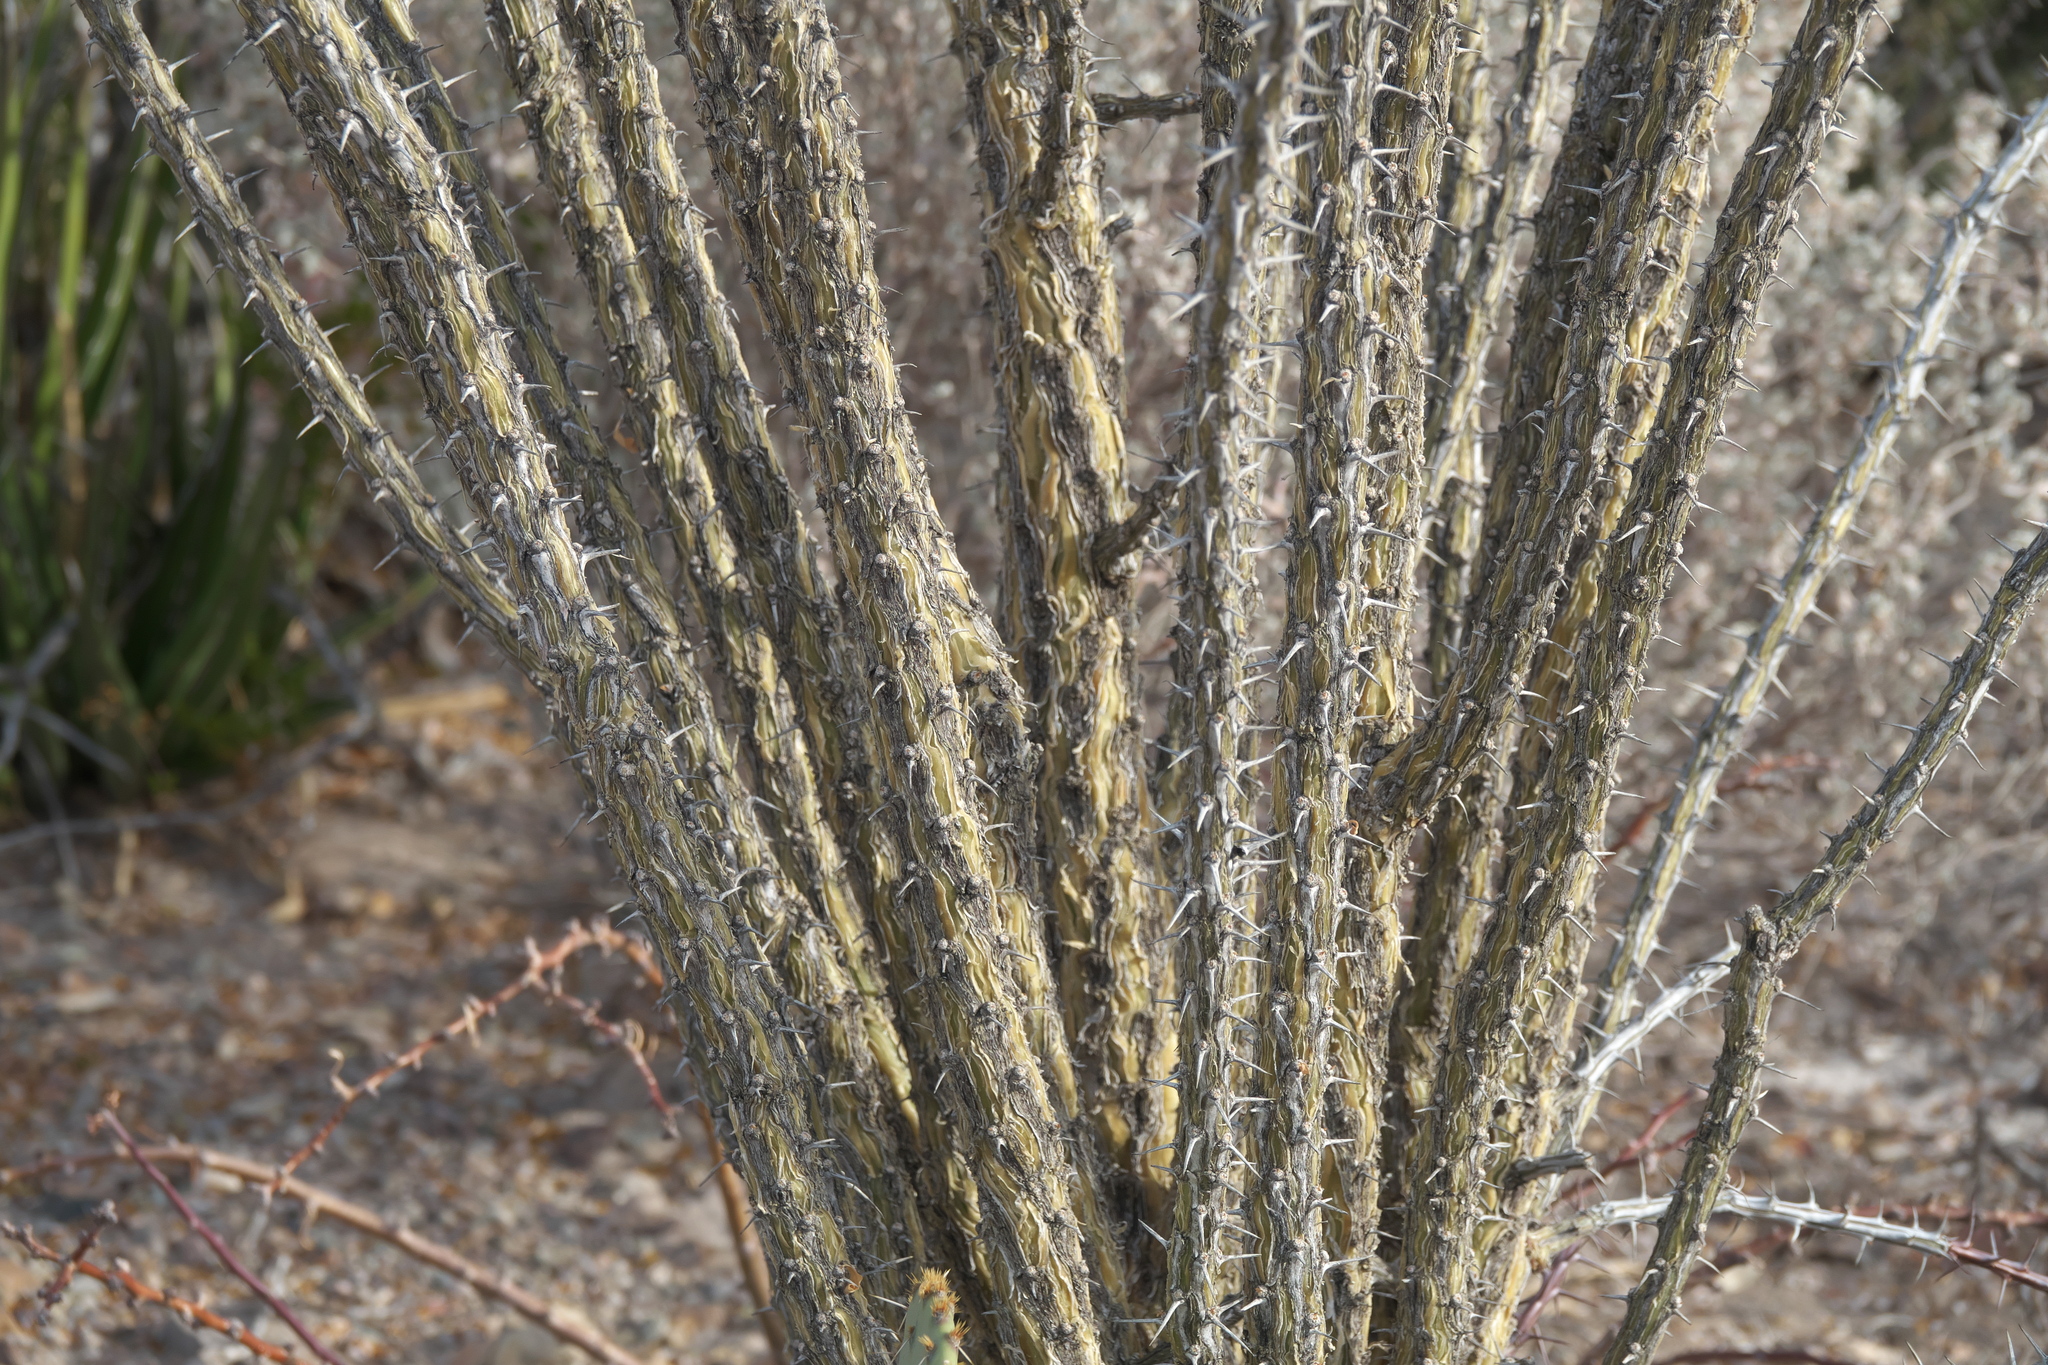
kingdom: Plantae
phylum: Tracheophyta
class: Magnoliopsida
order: Ericales
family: Fouquieriaceae
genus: Fouquieria
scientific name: Fouquieria splendens
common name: Vine-cactus
